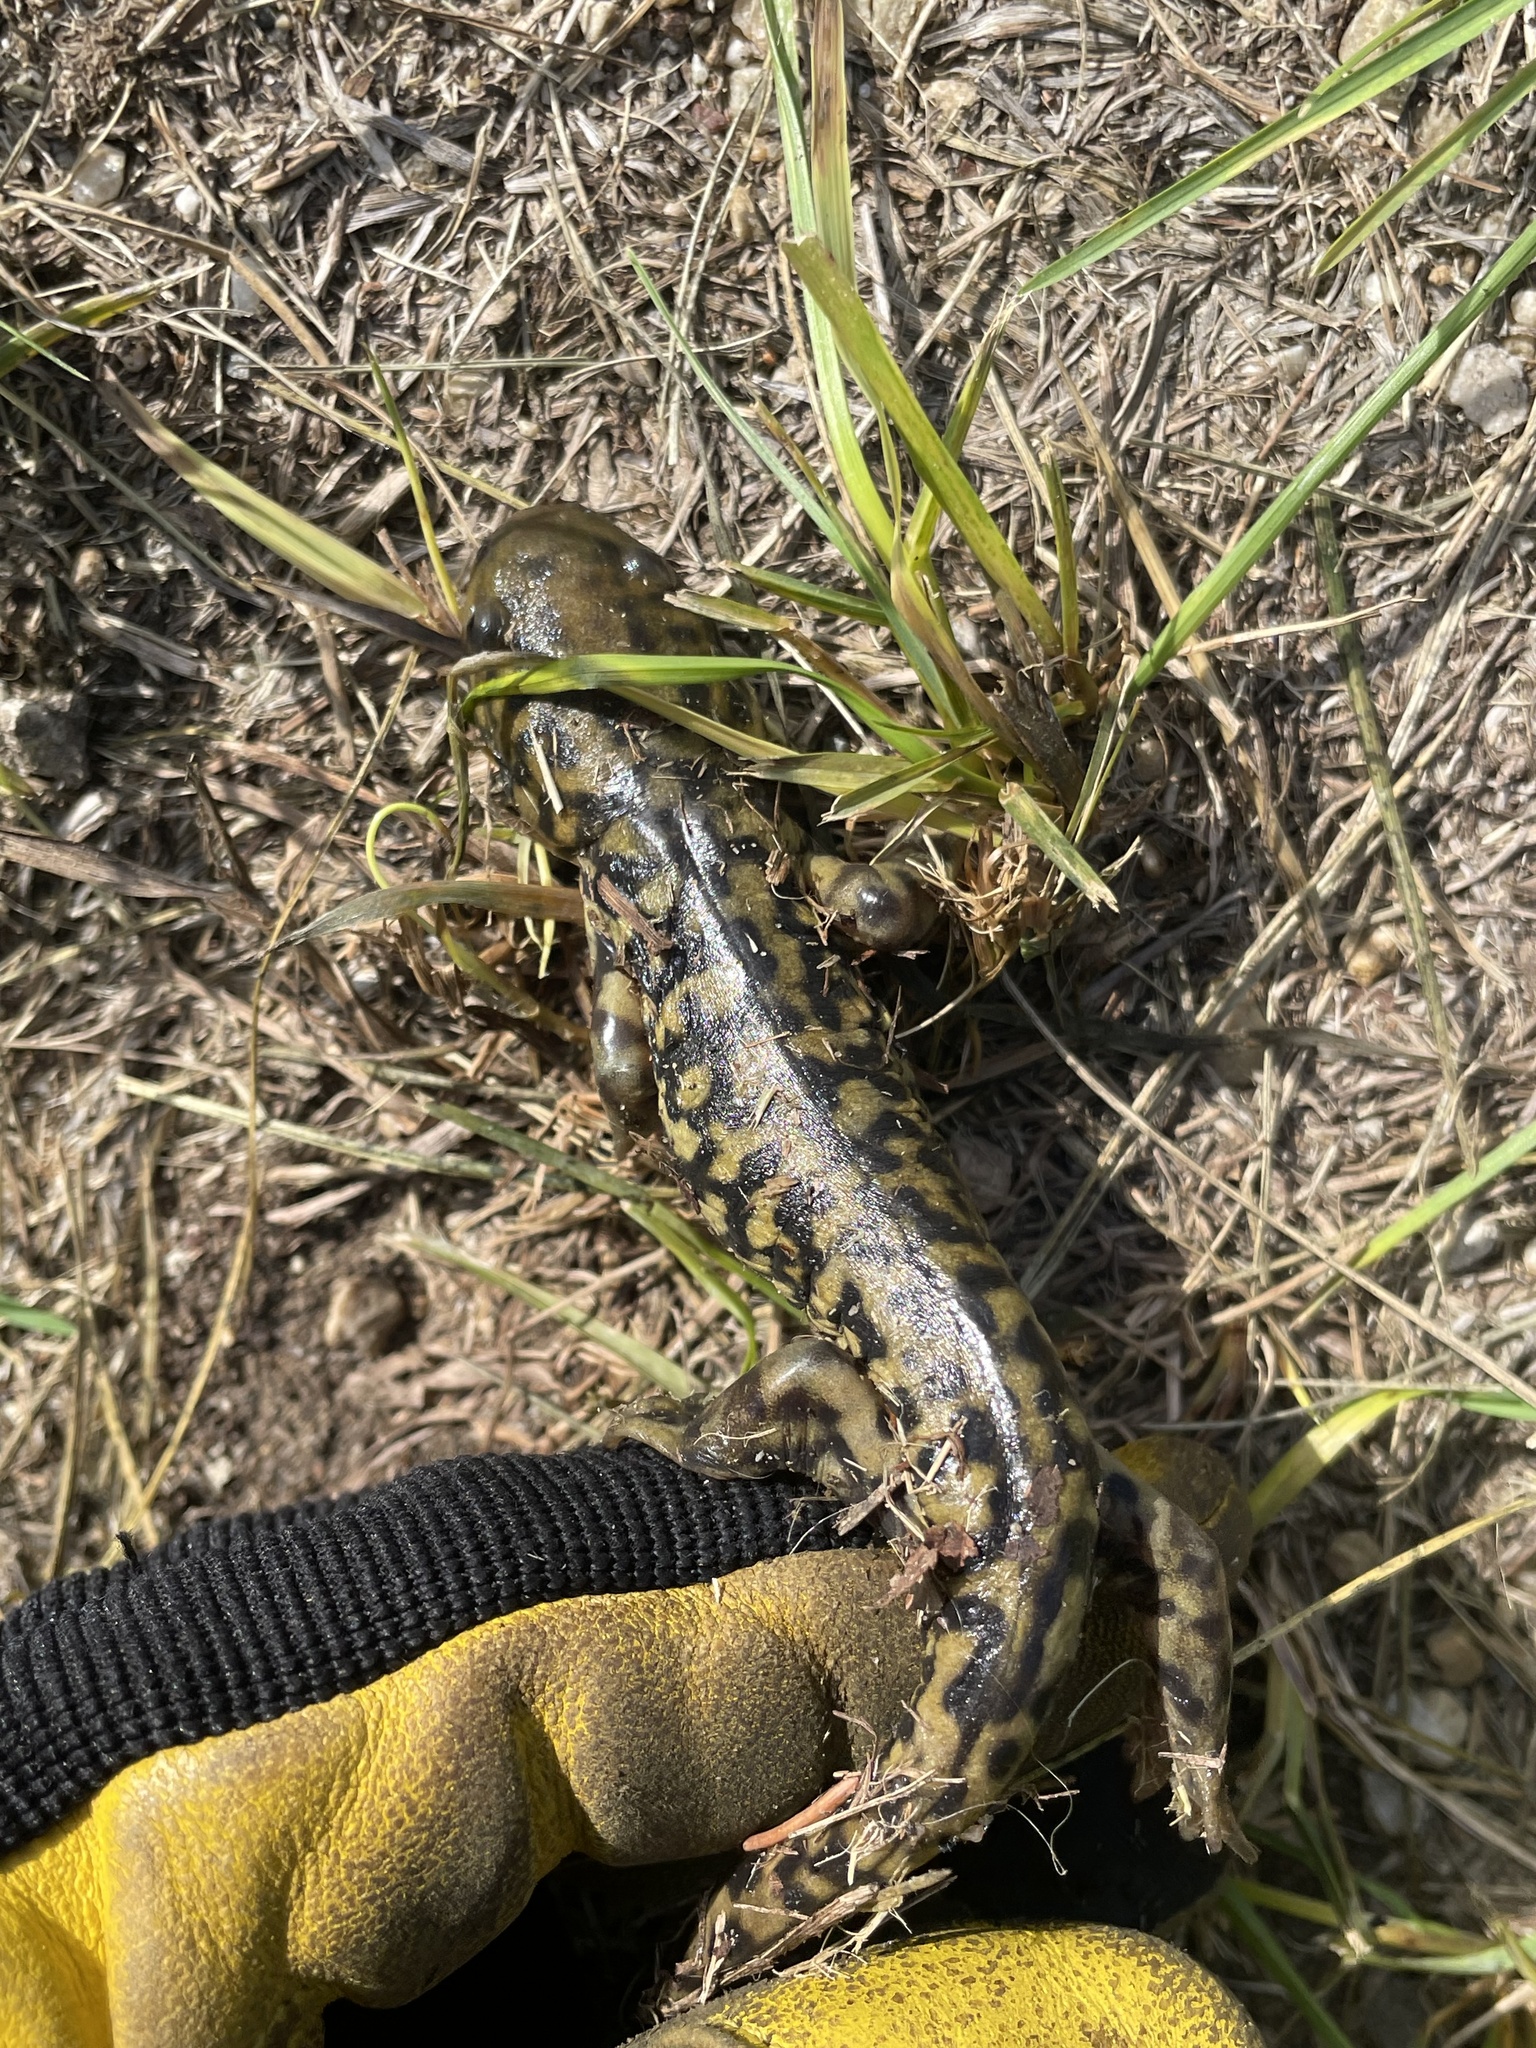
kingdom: Animalia
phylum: Chordata
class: Amphibia
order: Caudata
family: Ambystomatidae
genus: Ambystoma
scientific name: Ambystoma mavortium
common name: Western tiger salamander
